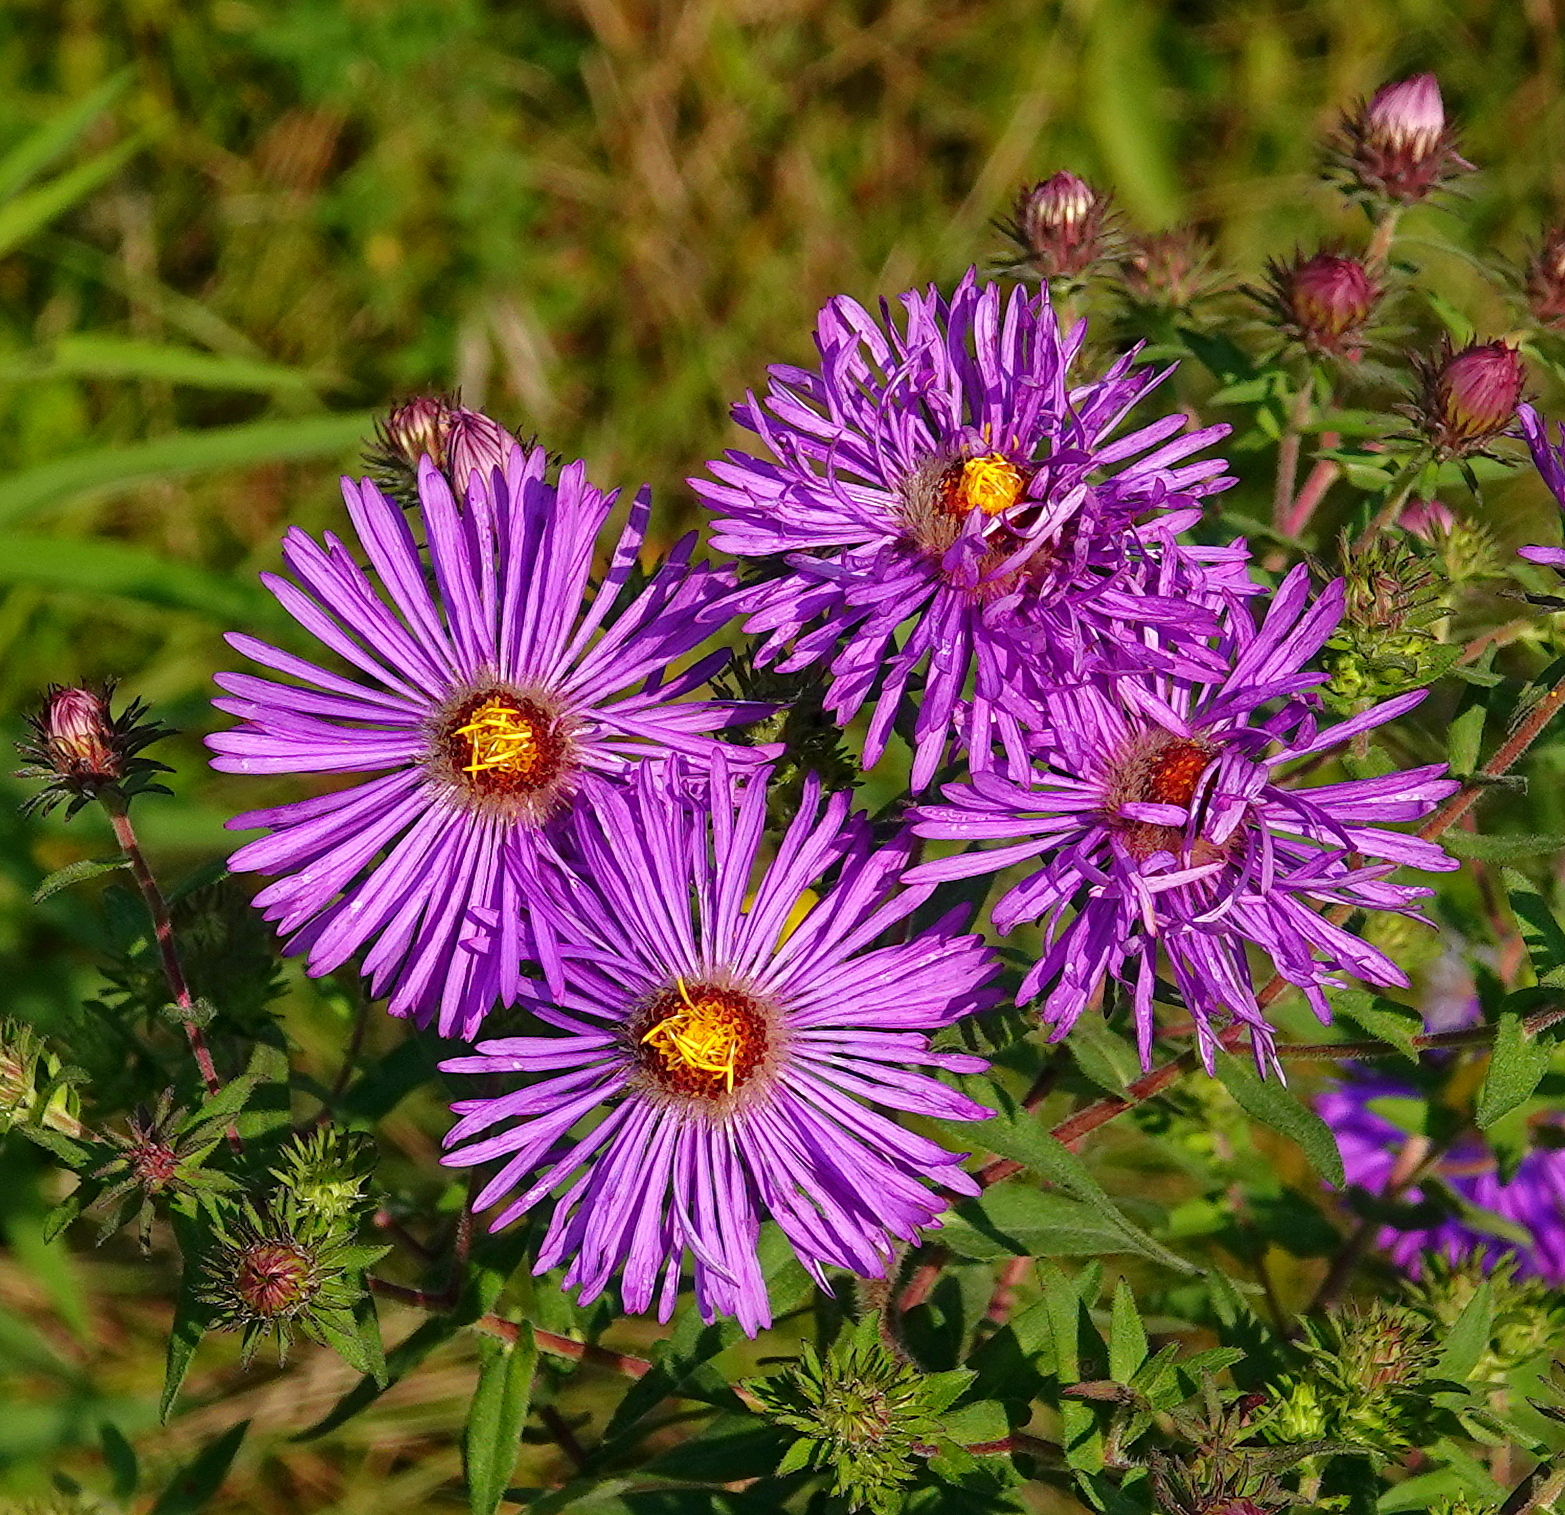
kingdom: Plantae
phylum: Tracheophyta
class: Magnoliopsida
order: Asterales
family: Asteraceae
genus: Symphyotrichum
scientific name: Symphyotrichum novae-angliae
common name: Michaelmas daisy
